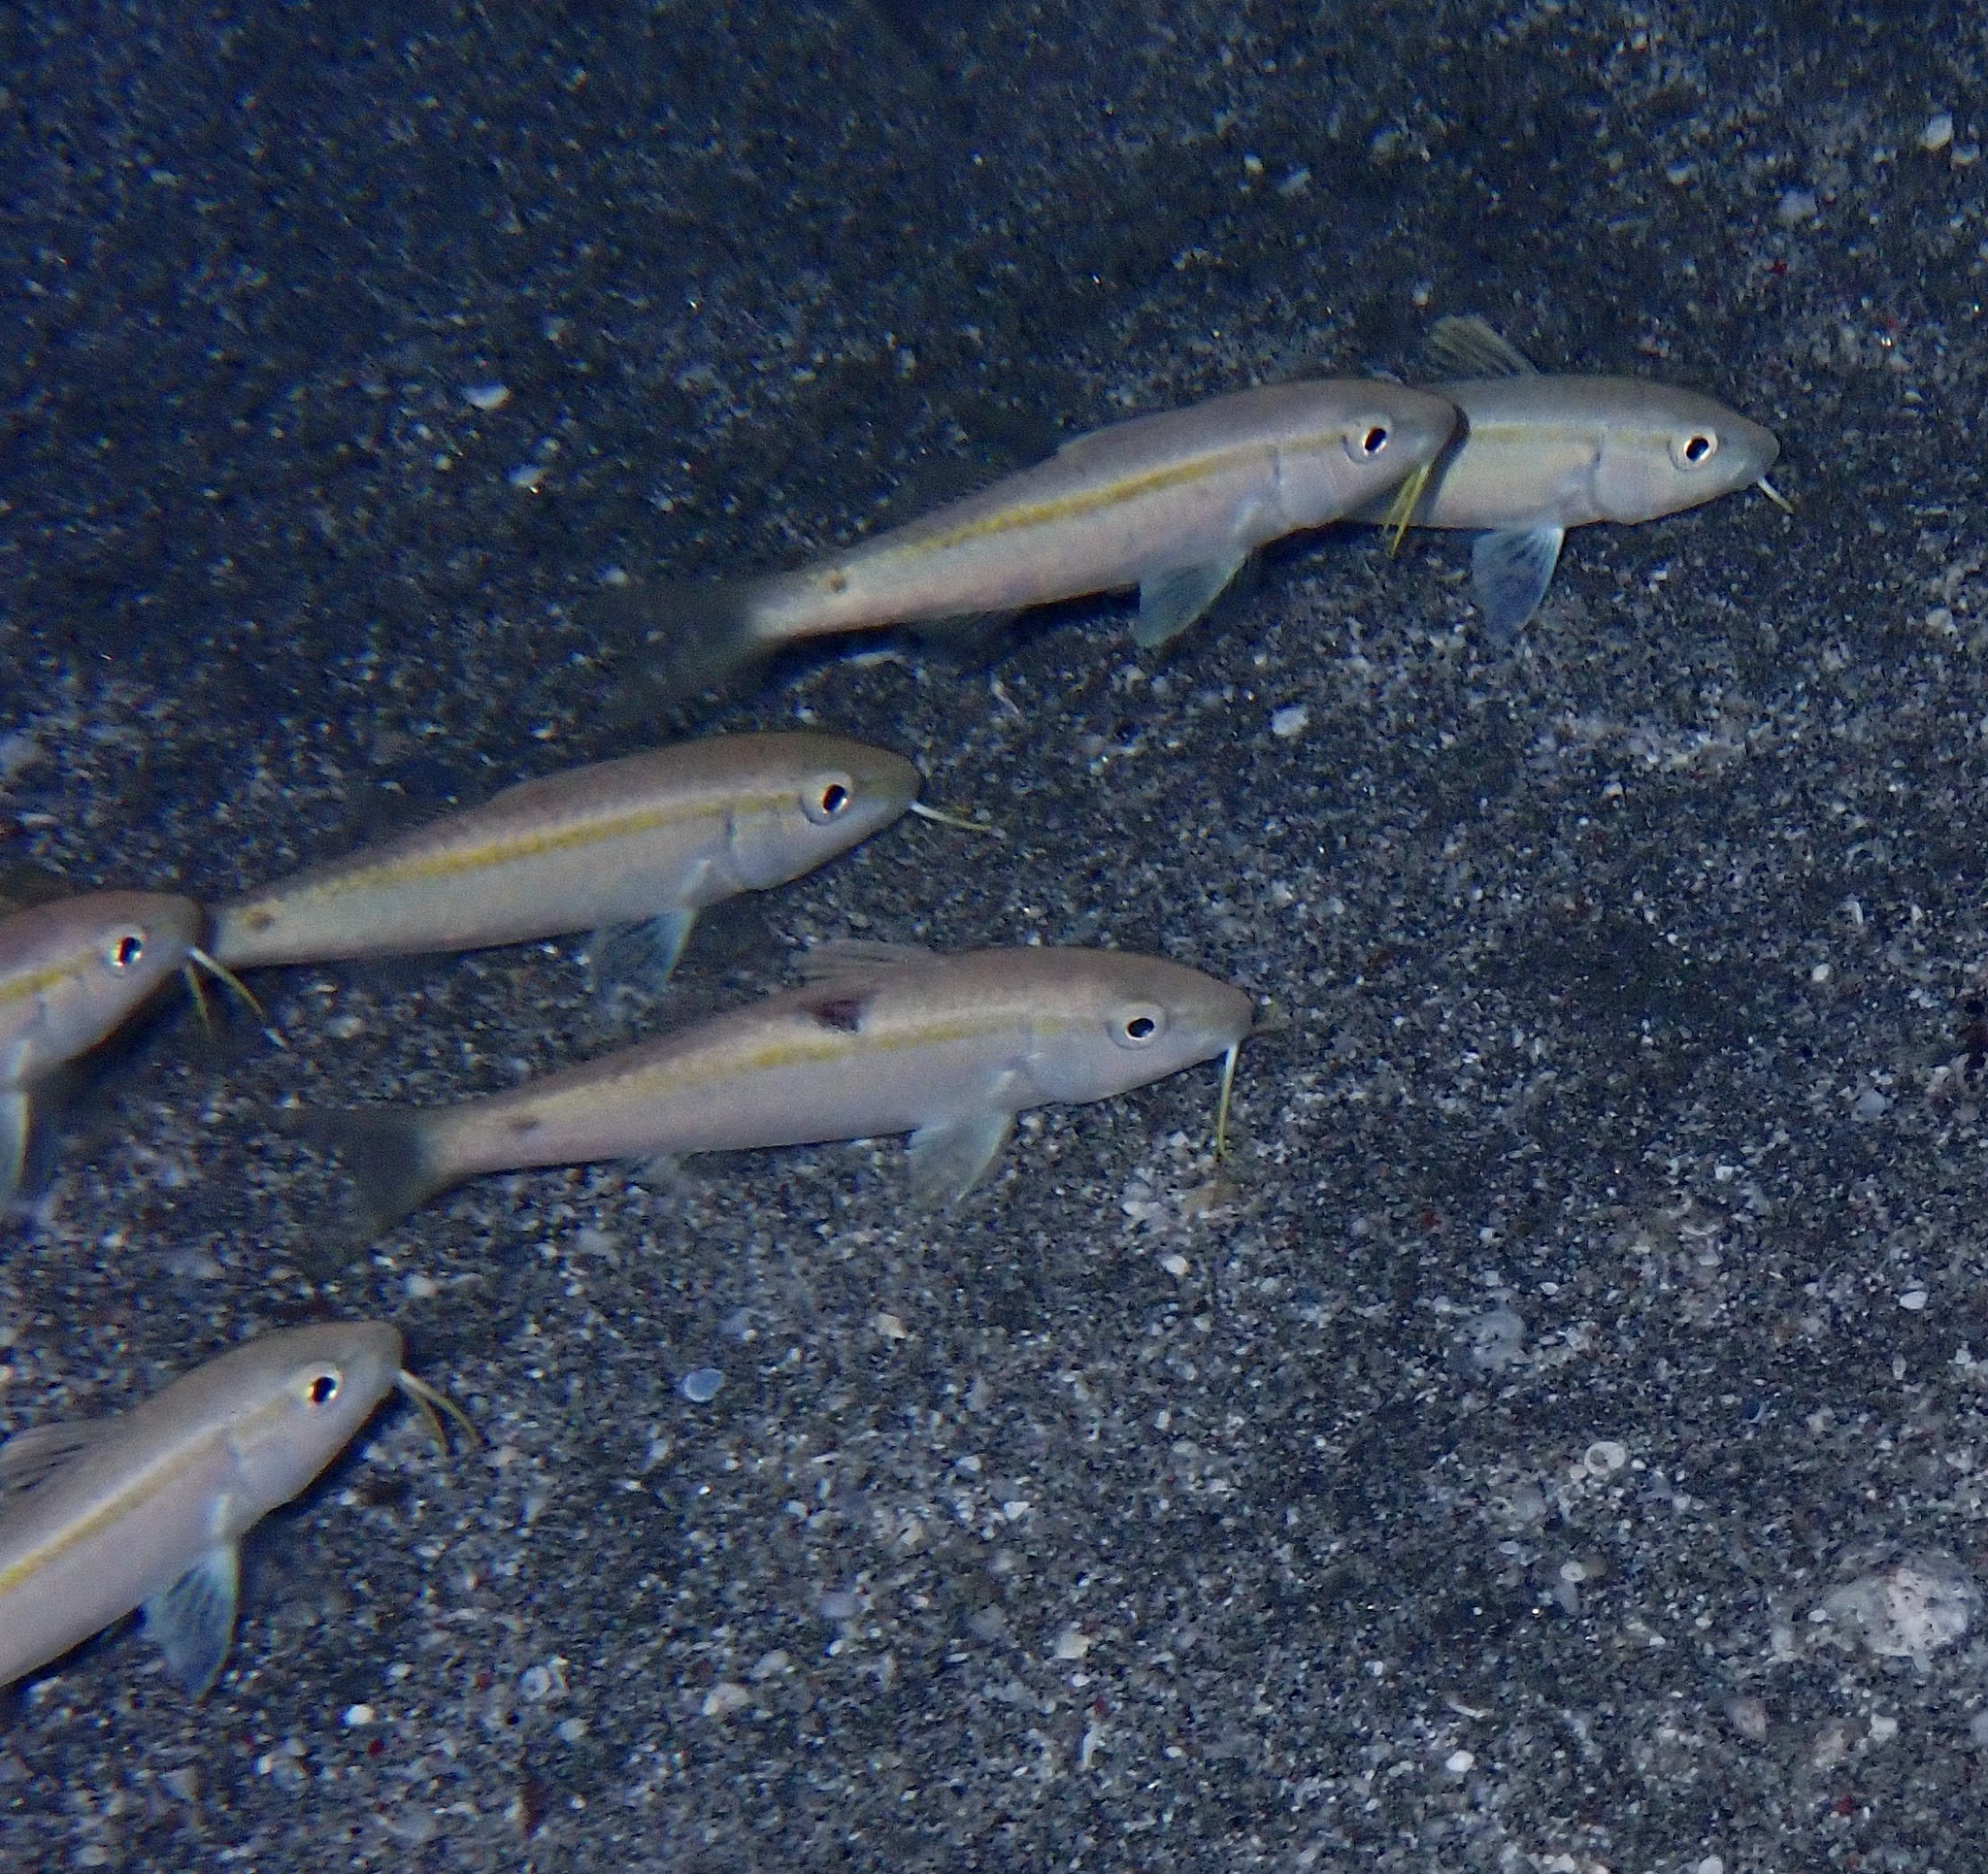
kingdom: Animalia
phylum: Chordata
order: Perciformes
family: Mullidae
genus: Mulloidichthys
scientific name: Mulloidichthys flavolineatus
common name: Yellowstripe goatfish
